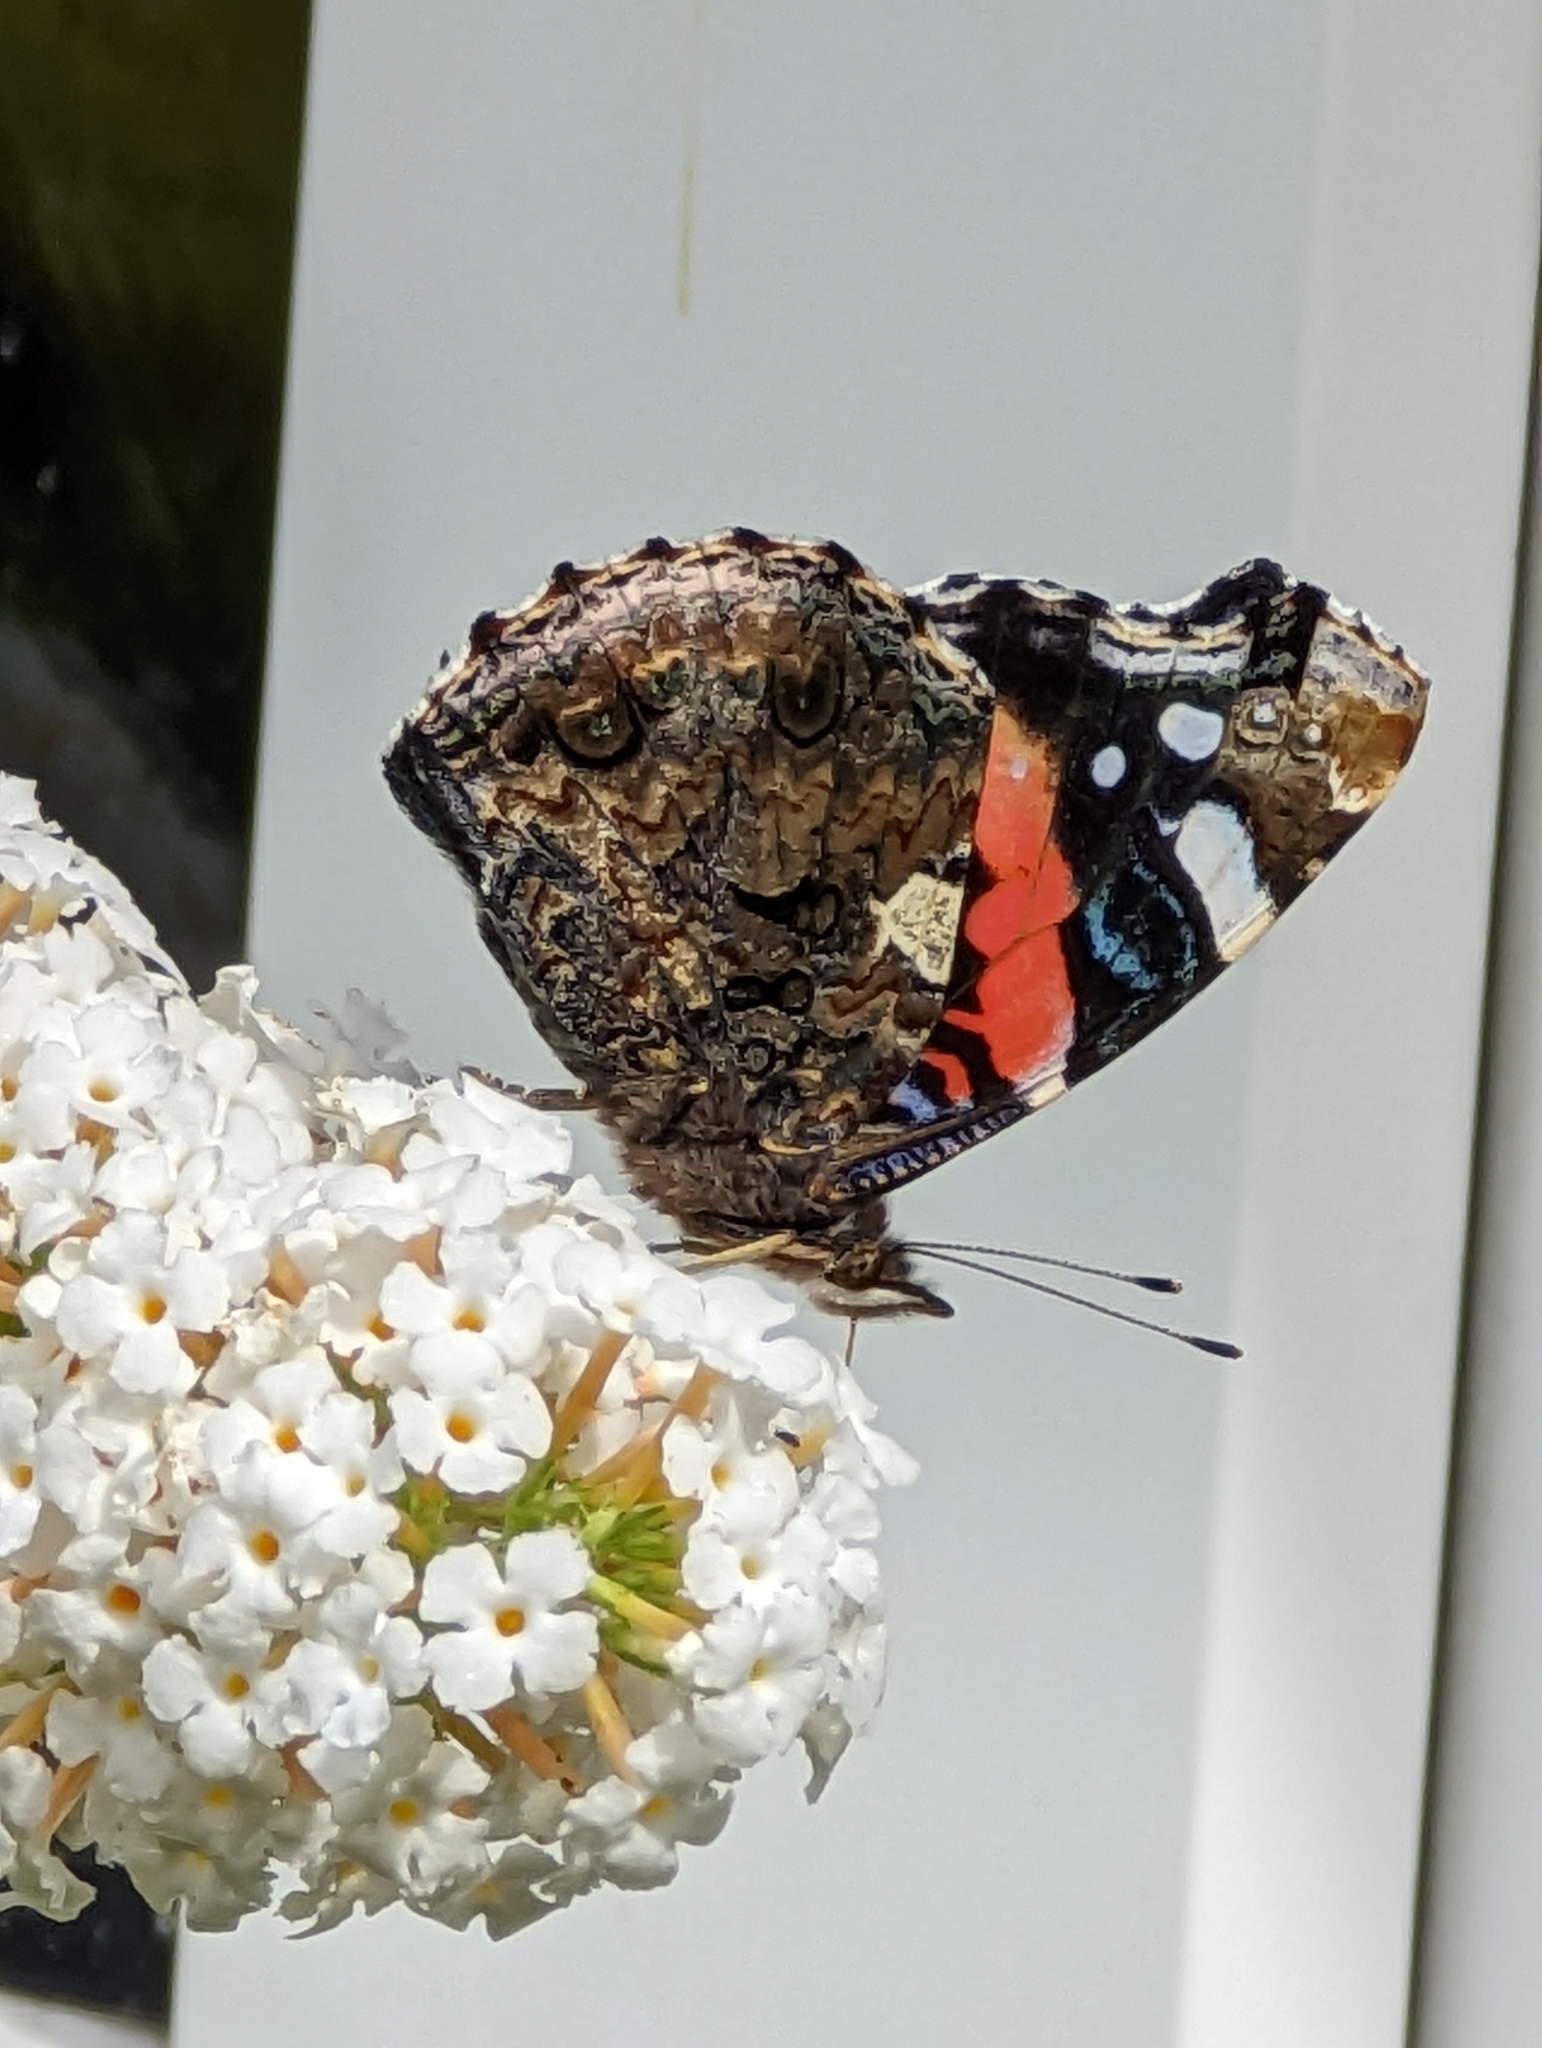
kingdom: Animalia
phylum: Arthropoda
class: Insecta
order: Lepidoptera
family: Nymphalidae
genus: Vanessa
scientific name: Vanessa atalanta
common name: Red admiral
